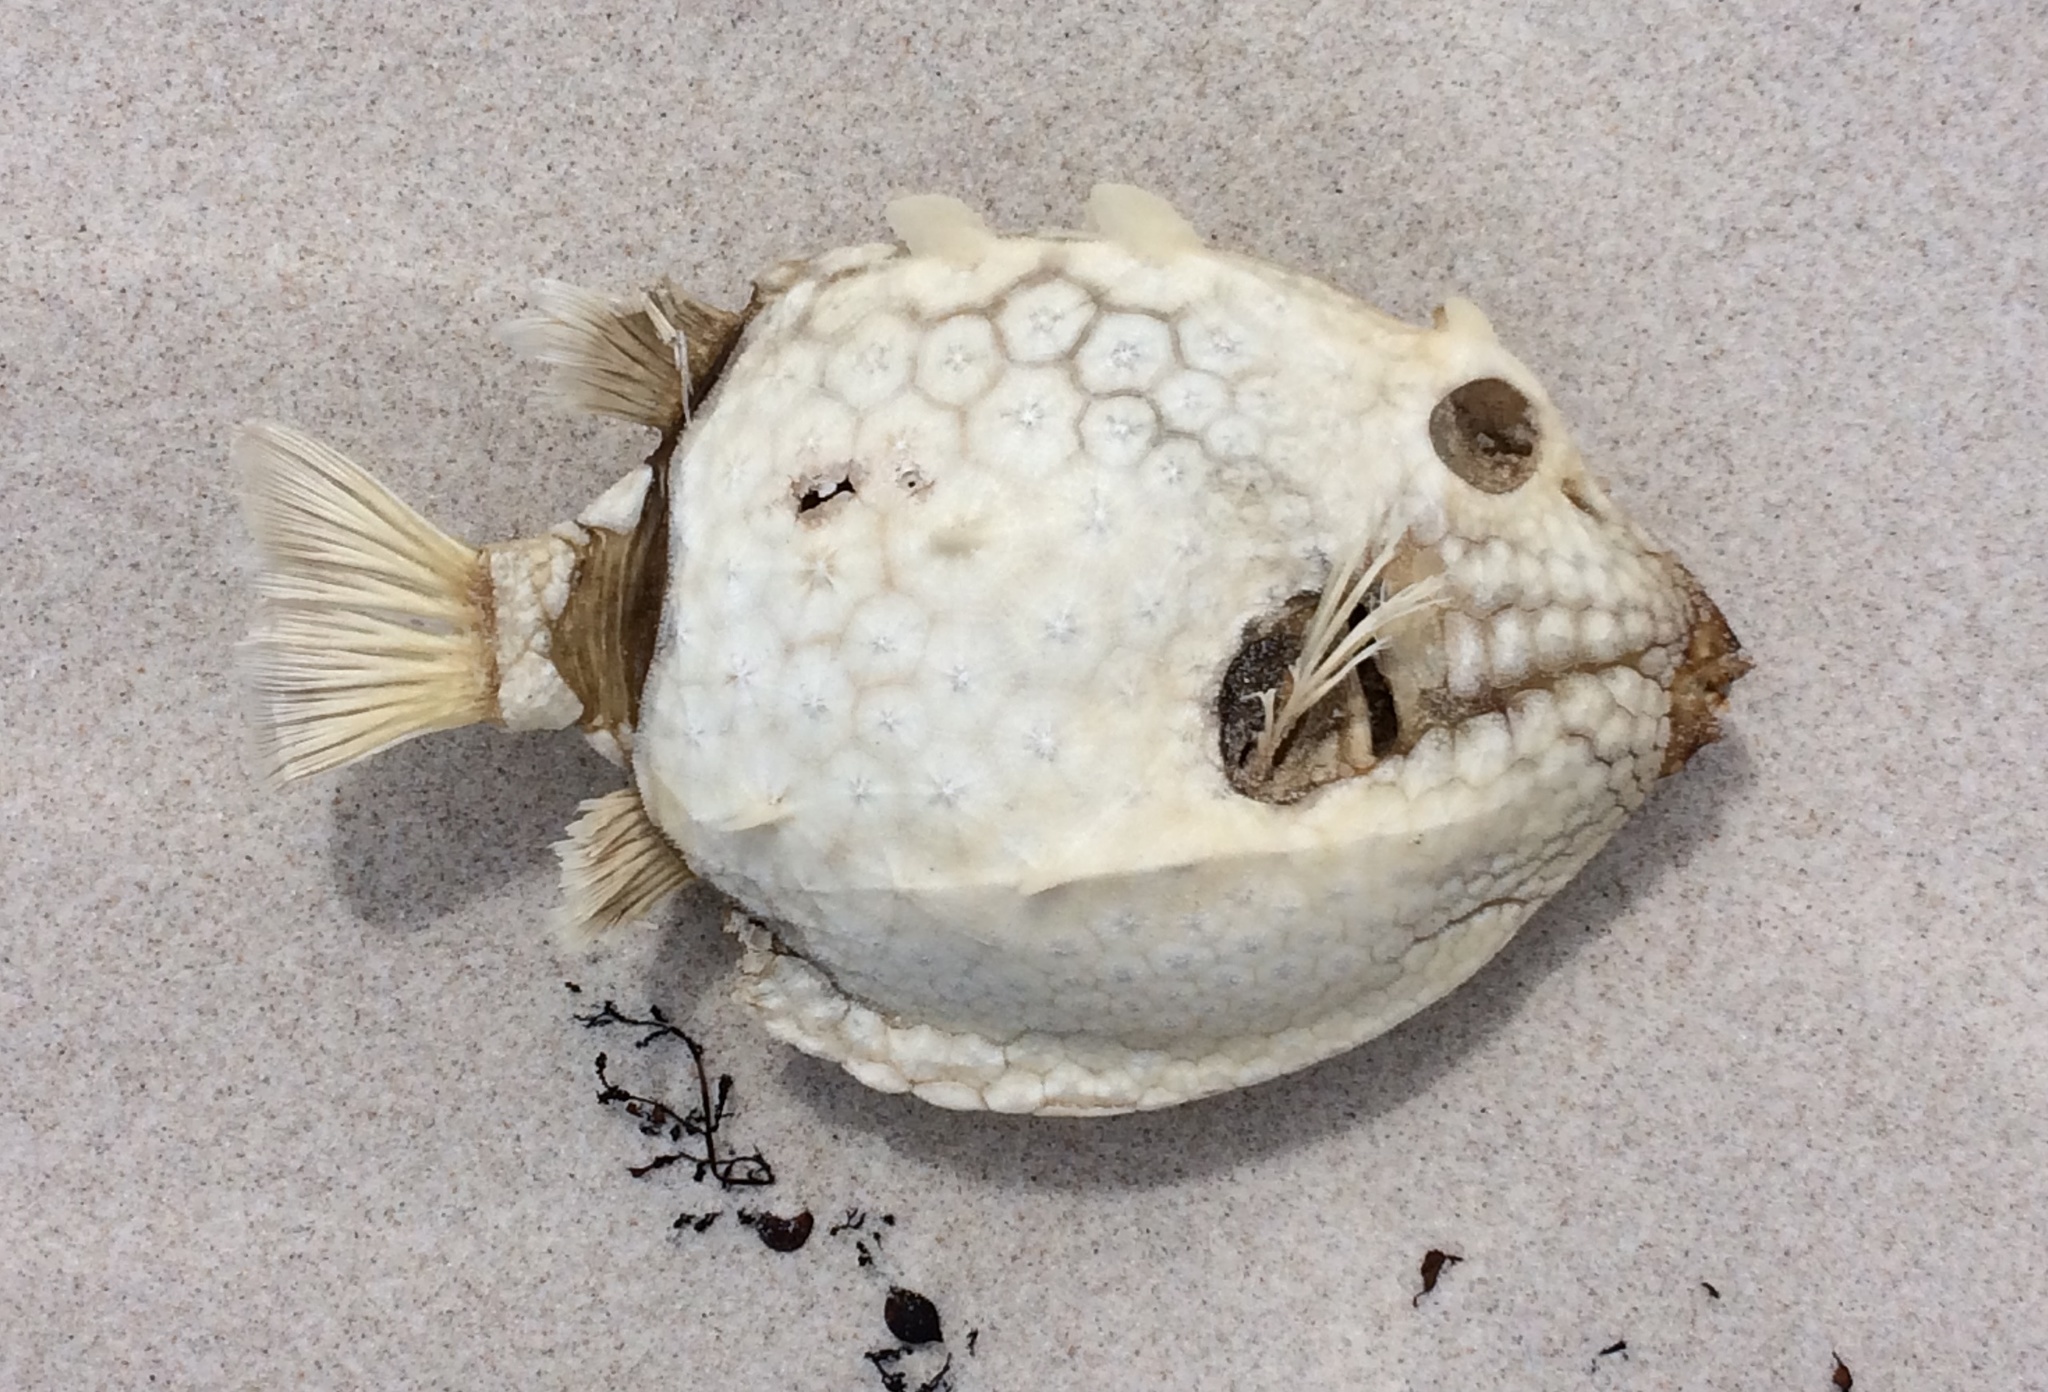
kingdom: Animalia
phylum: Chordata
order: Tetraodontiformes
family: Aracanidae
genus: Aracana
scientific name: Aracana aurita
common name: Shaw’s cowfish
